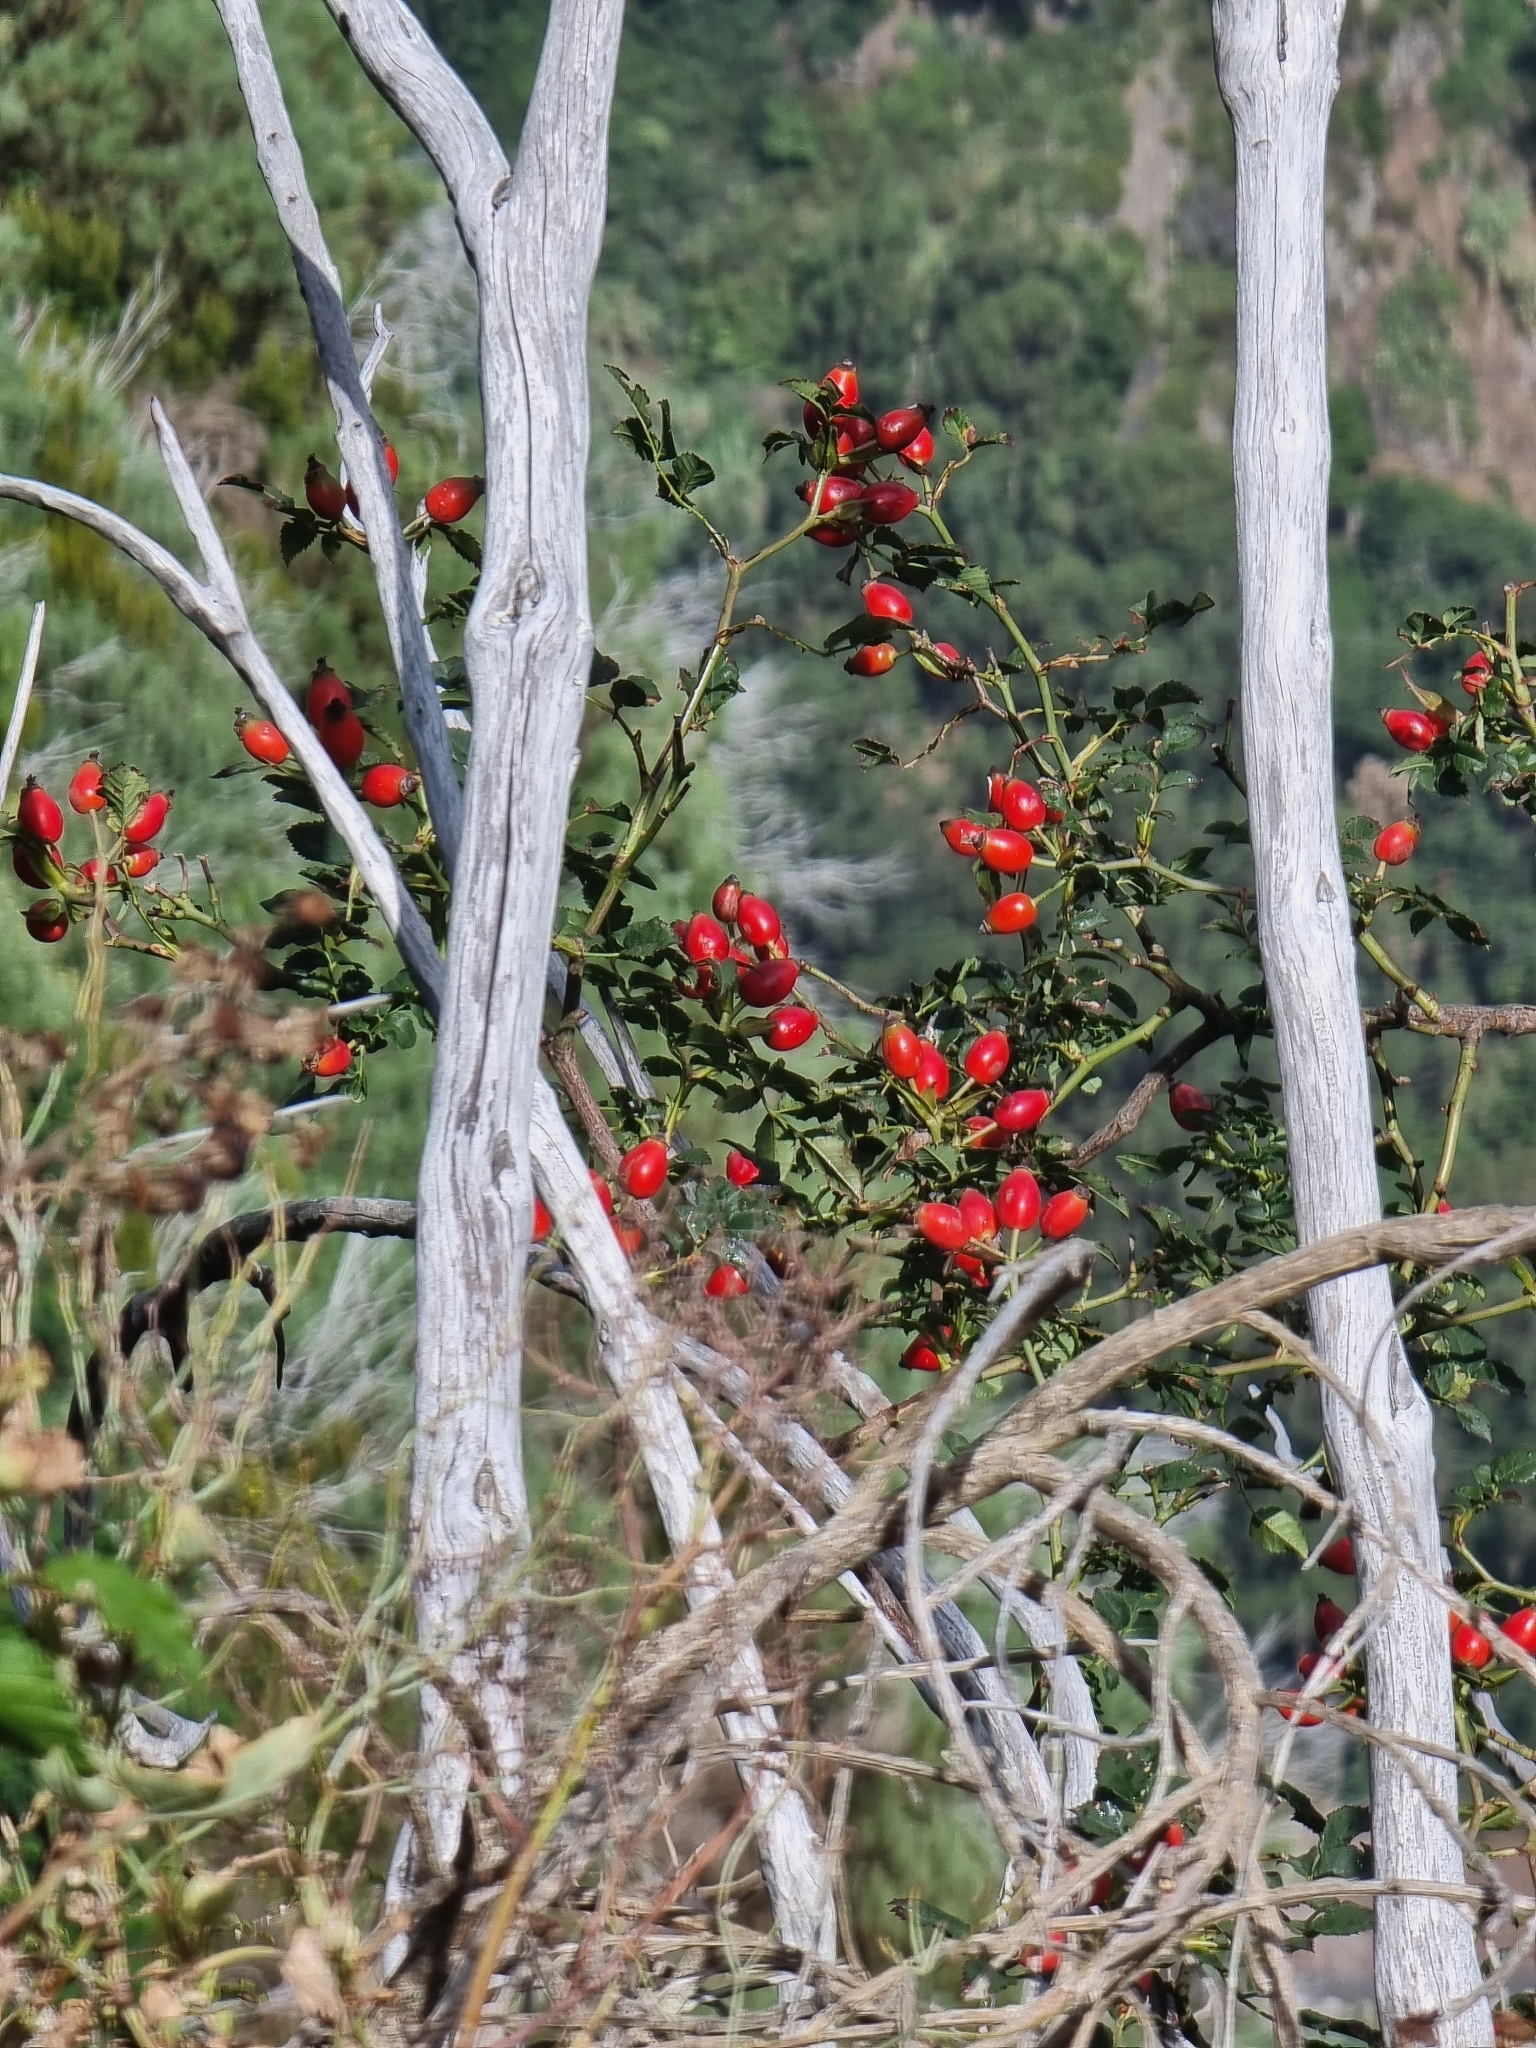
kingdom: Plantae
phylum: Tracheophyta
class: Magnoliopsida
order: Rosales
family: Rosaceae
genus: Rosa
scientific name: Rosa canina
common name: Dog rose
